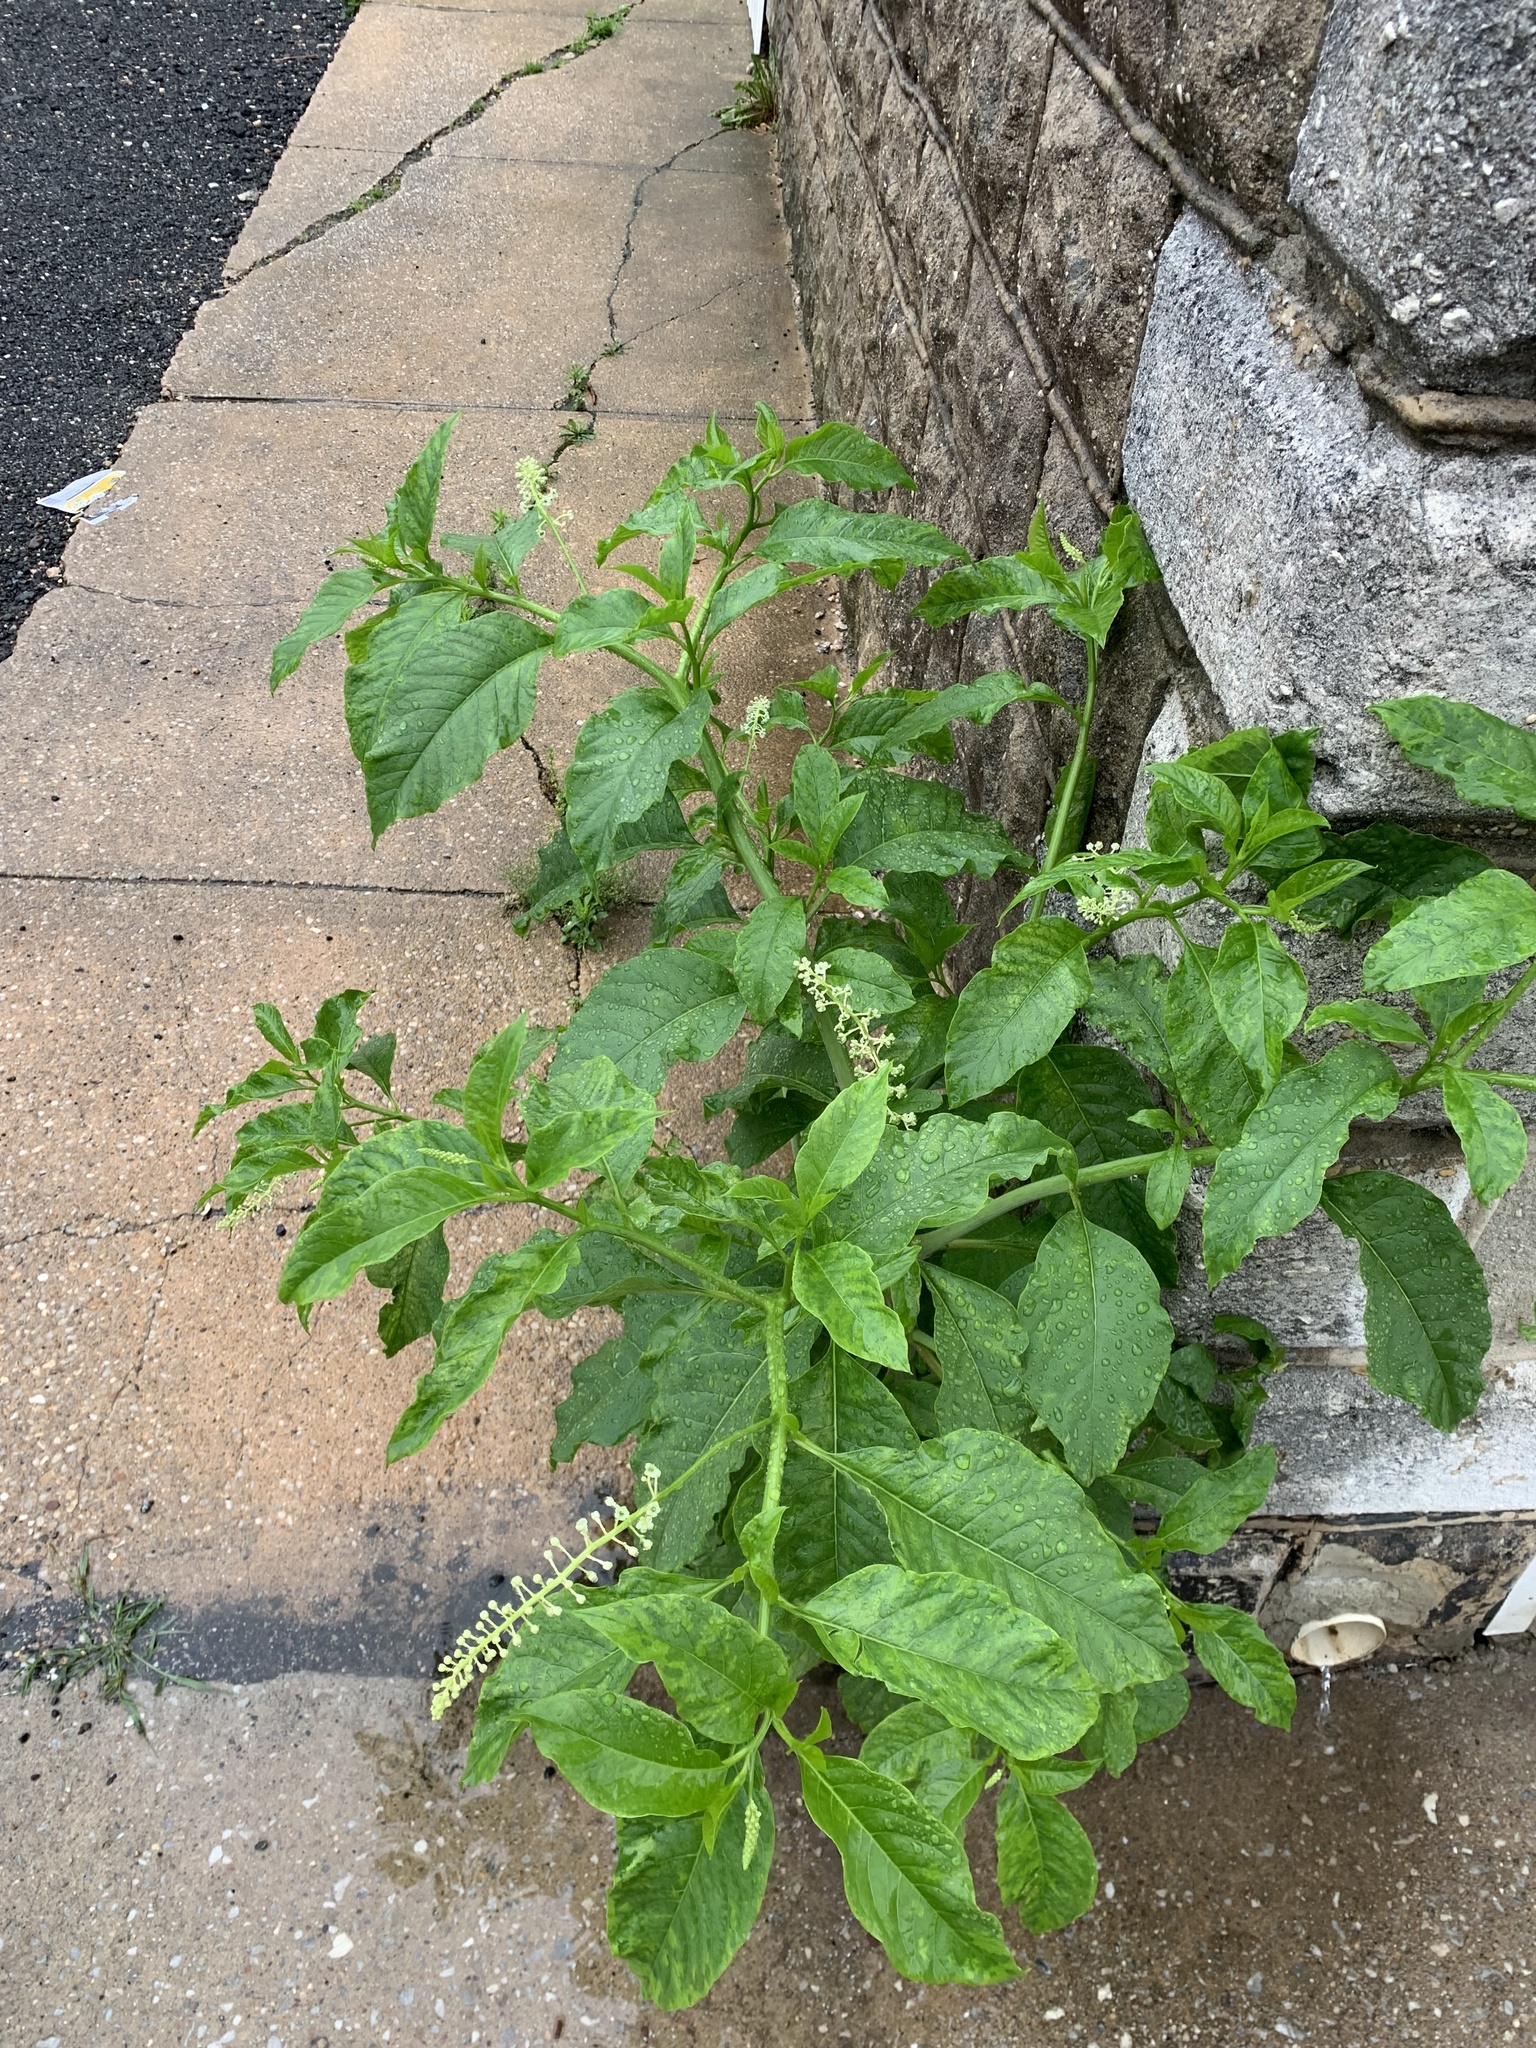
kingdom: Plantae
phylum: Tracheophyta
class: Magnoliopsida
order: Caryophyllales
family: Phytolaccaceae
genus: Phytolacca
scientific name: Phytolacca americana
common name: American pokeweed
